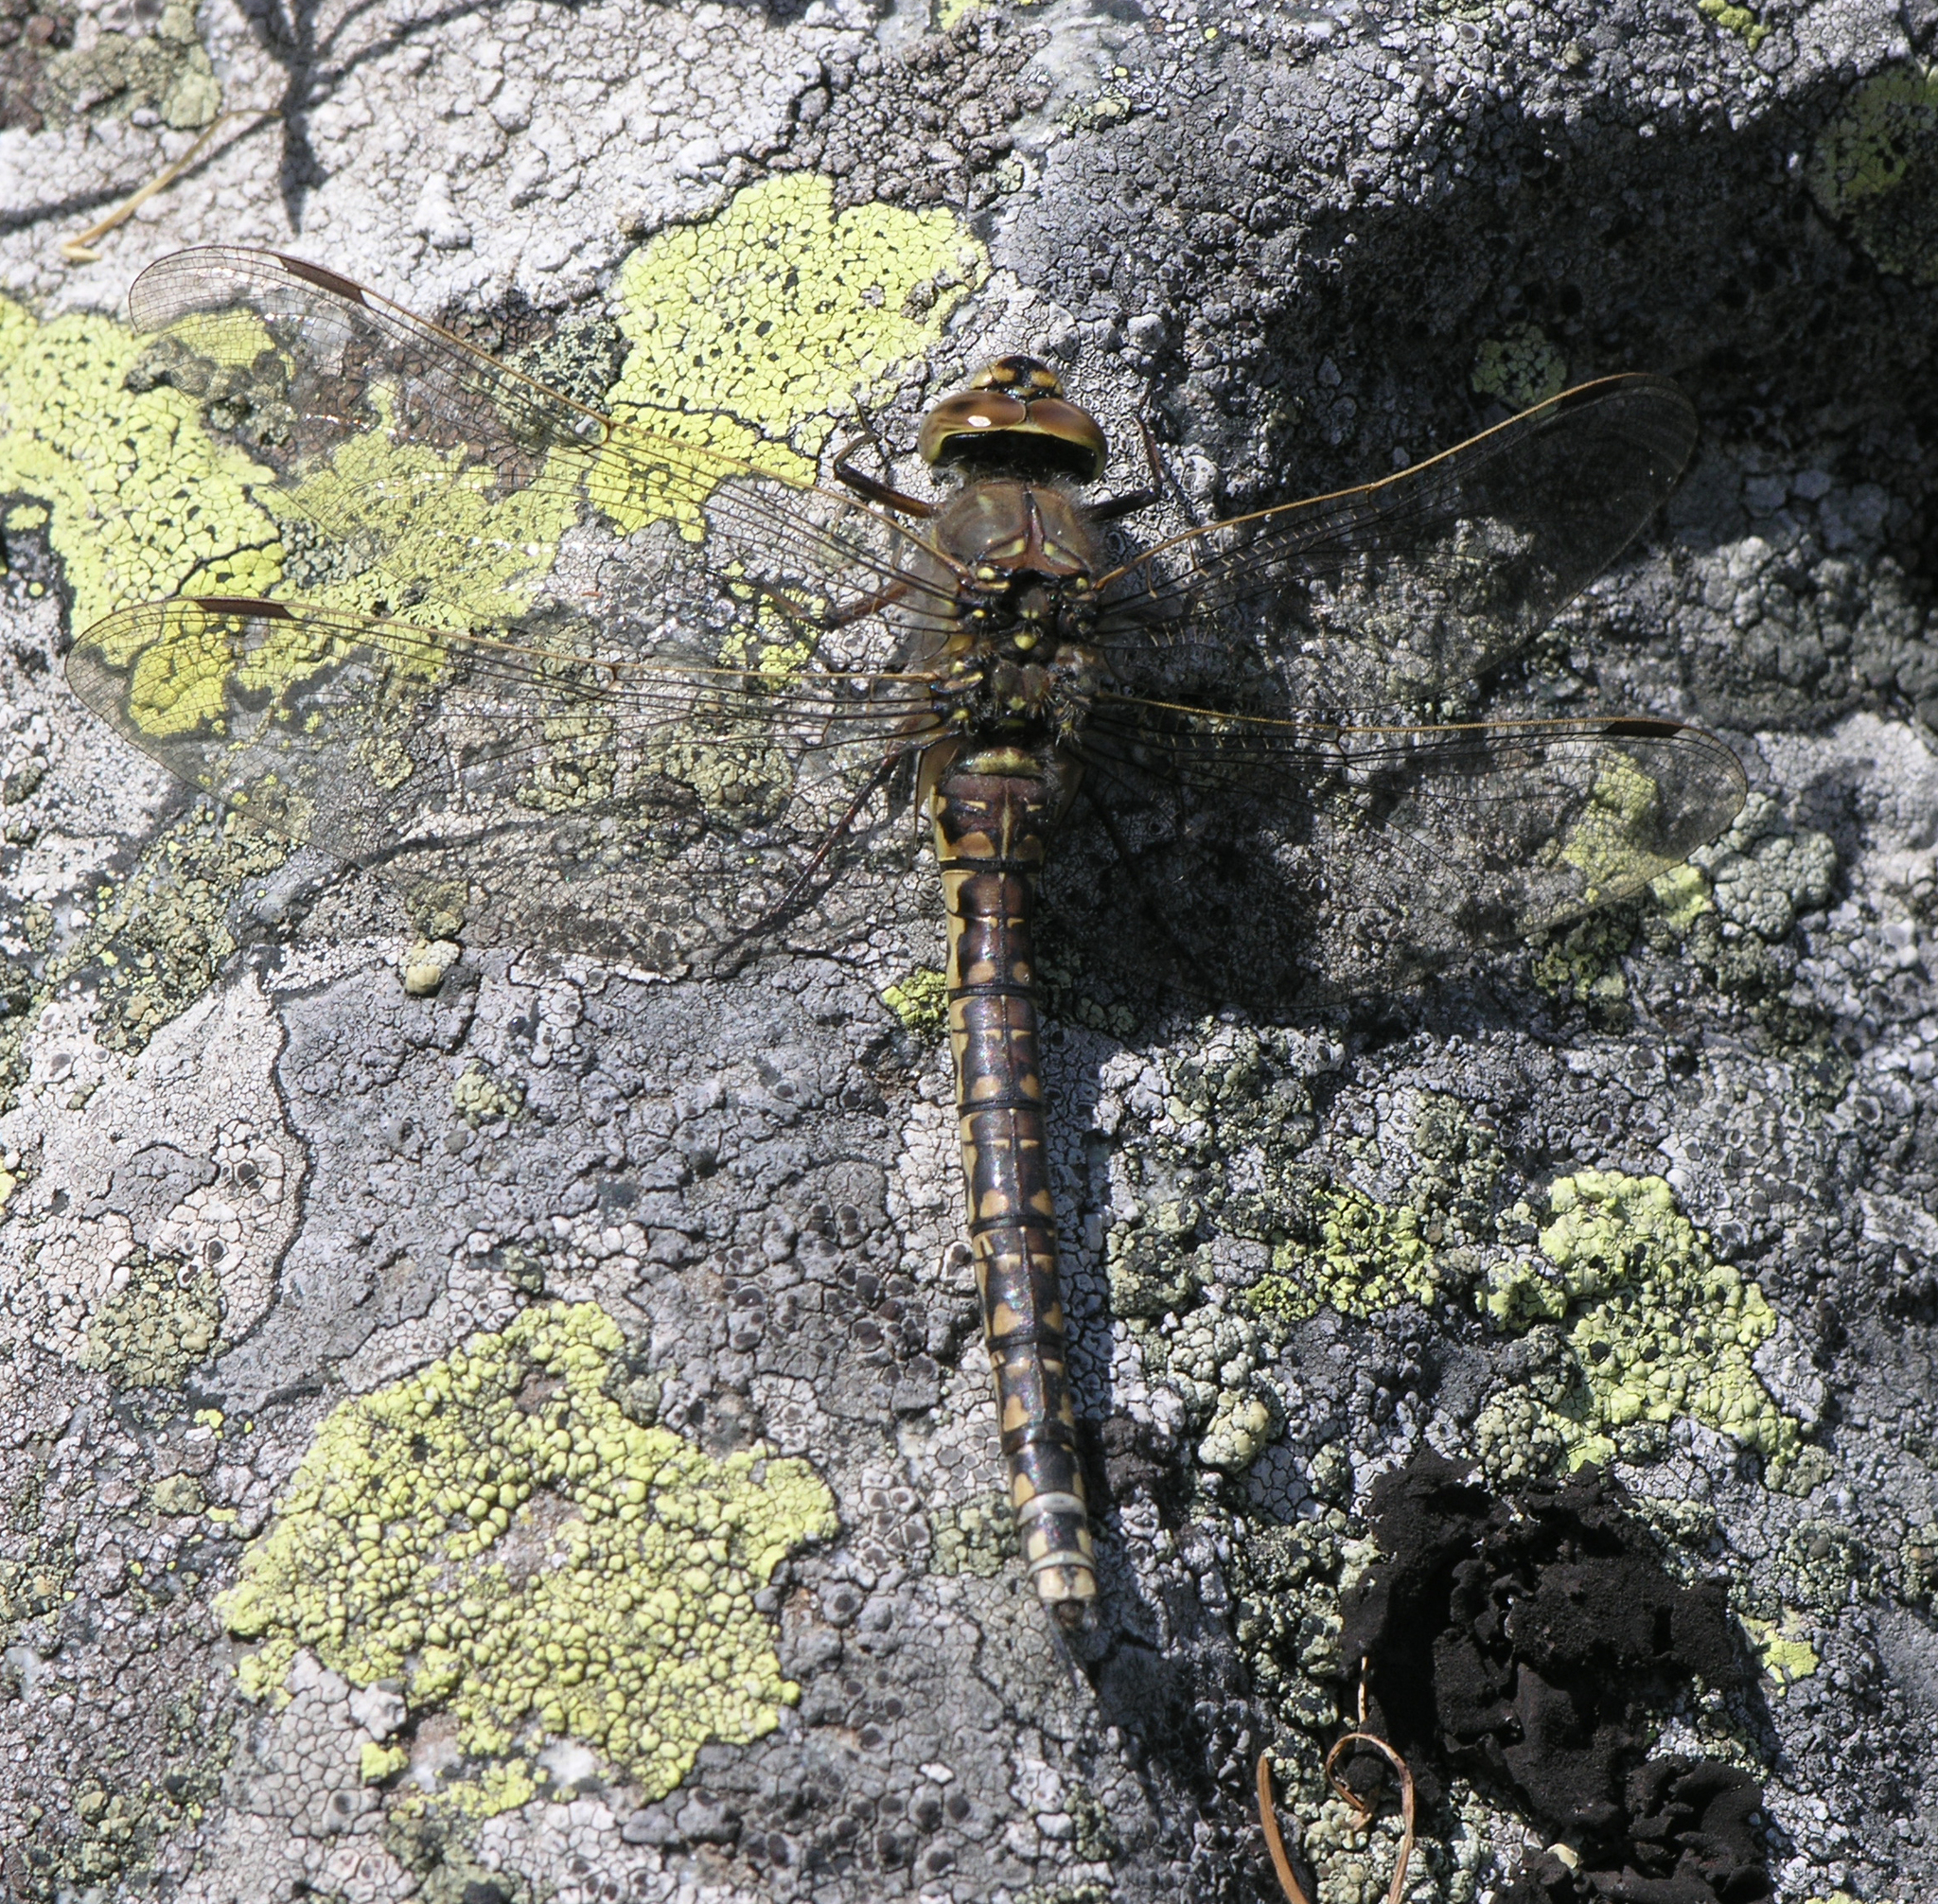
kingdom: Animalia
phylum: Arthropoda
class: Insecta
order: Odonata
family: Aeshnidae
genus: Aeshna
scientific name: Aeshna caerulea
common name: Azure hawker
